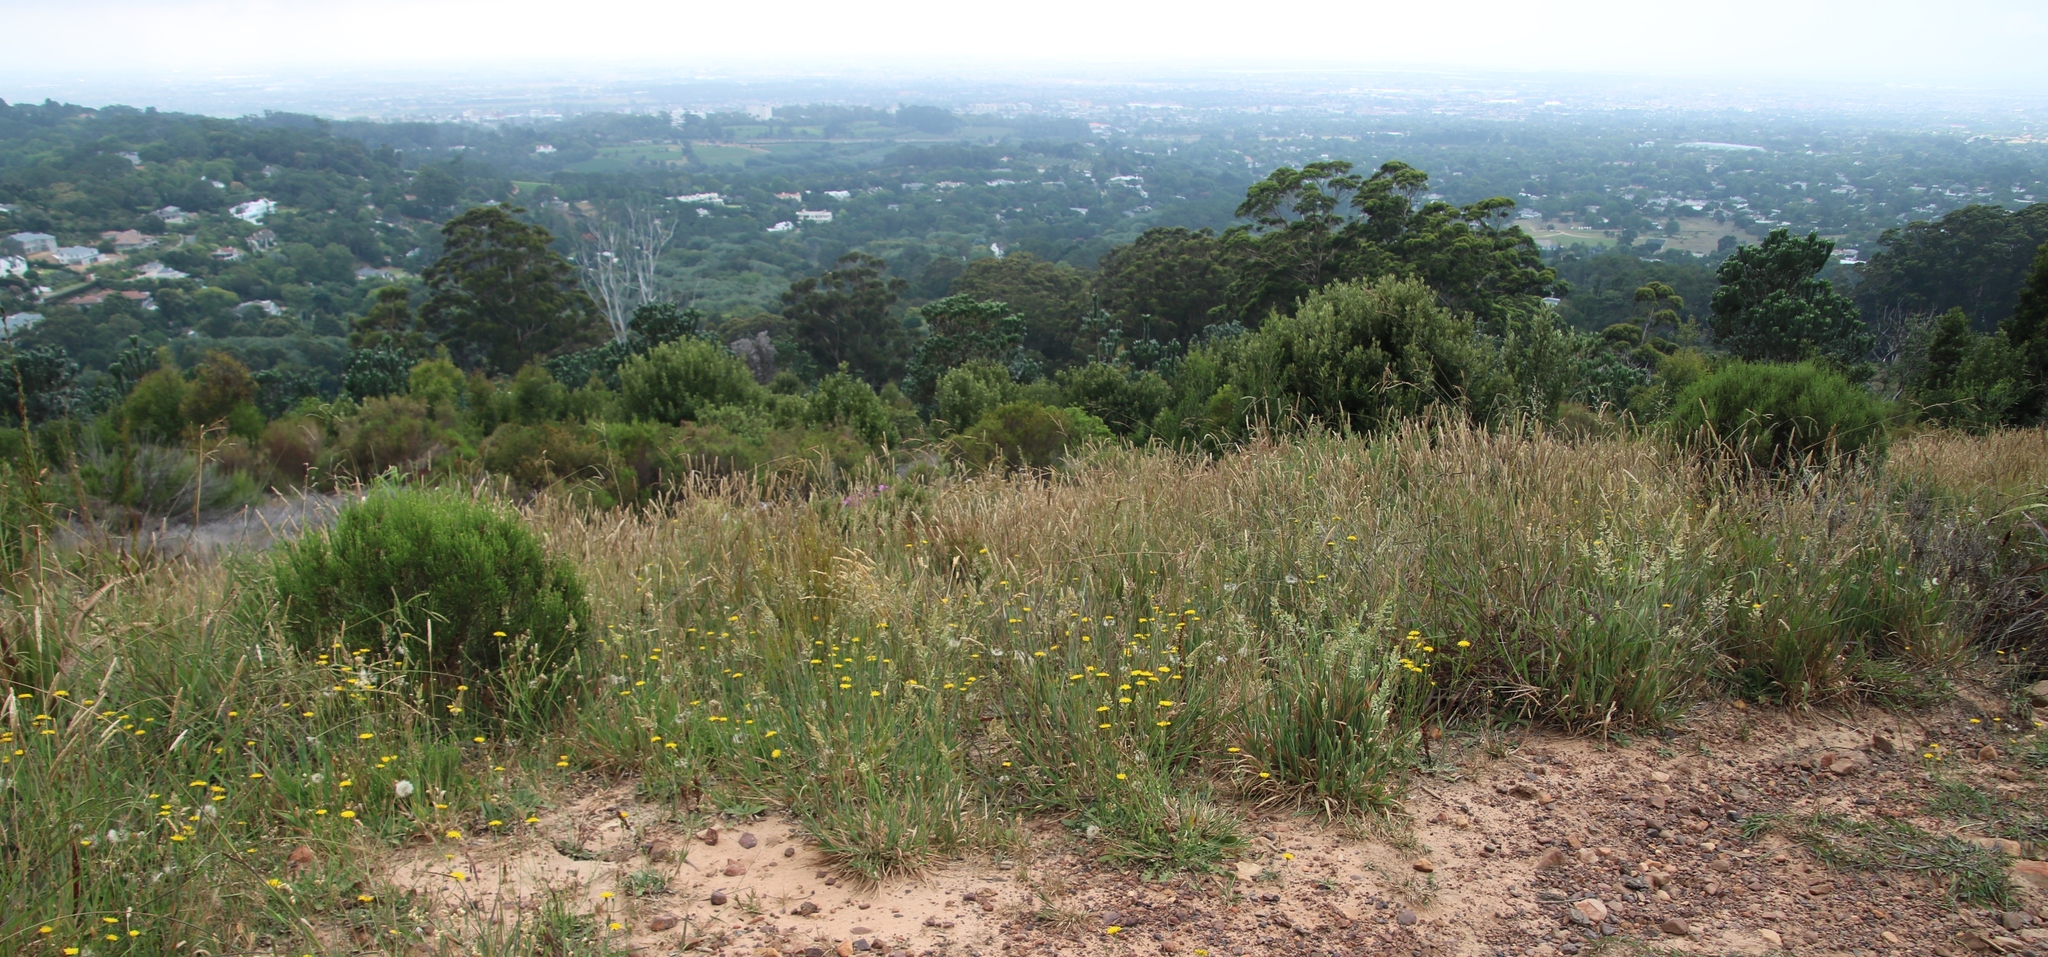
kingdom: Plantae
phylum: Tracheophyta
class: Magnoliopsida
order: Asterales
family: Asteraceae
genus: Hypochaeris
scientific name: Hypochaeris radicata
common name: Flatweed
